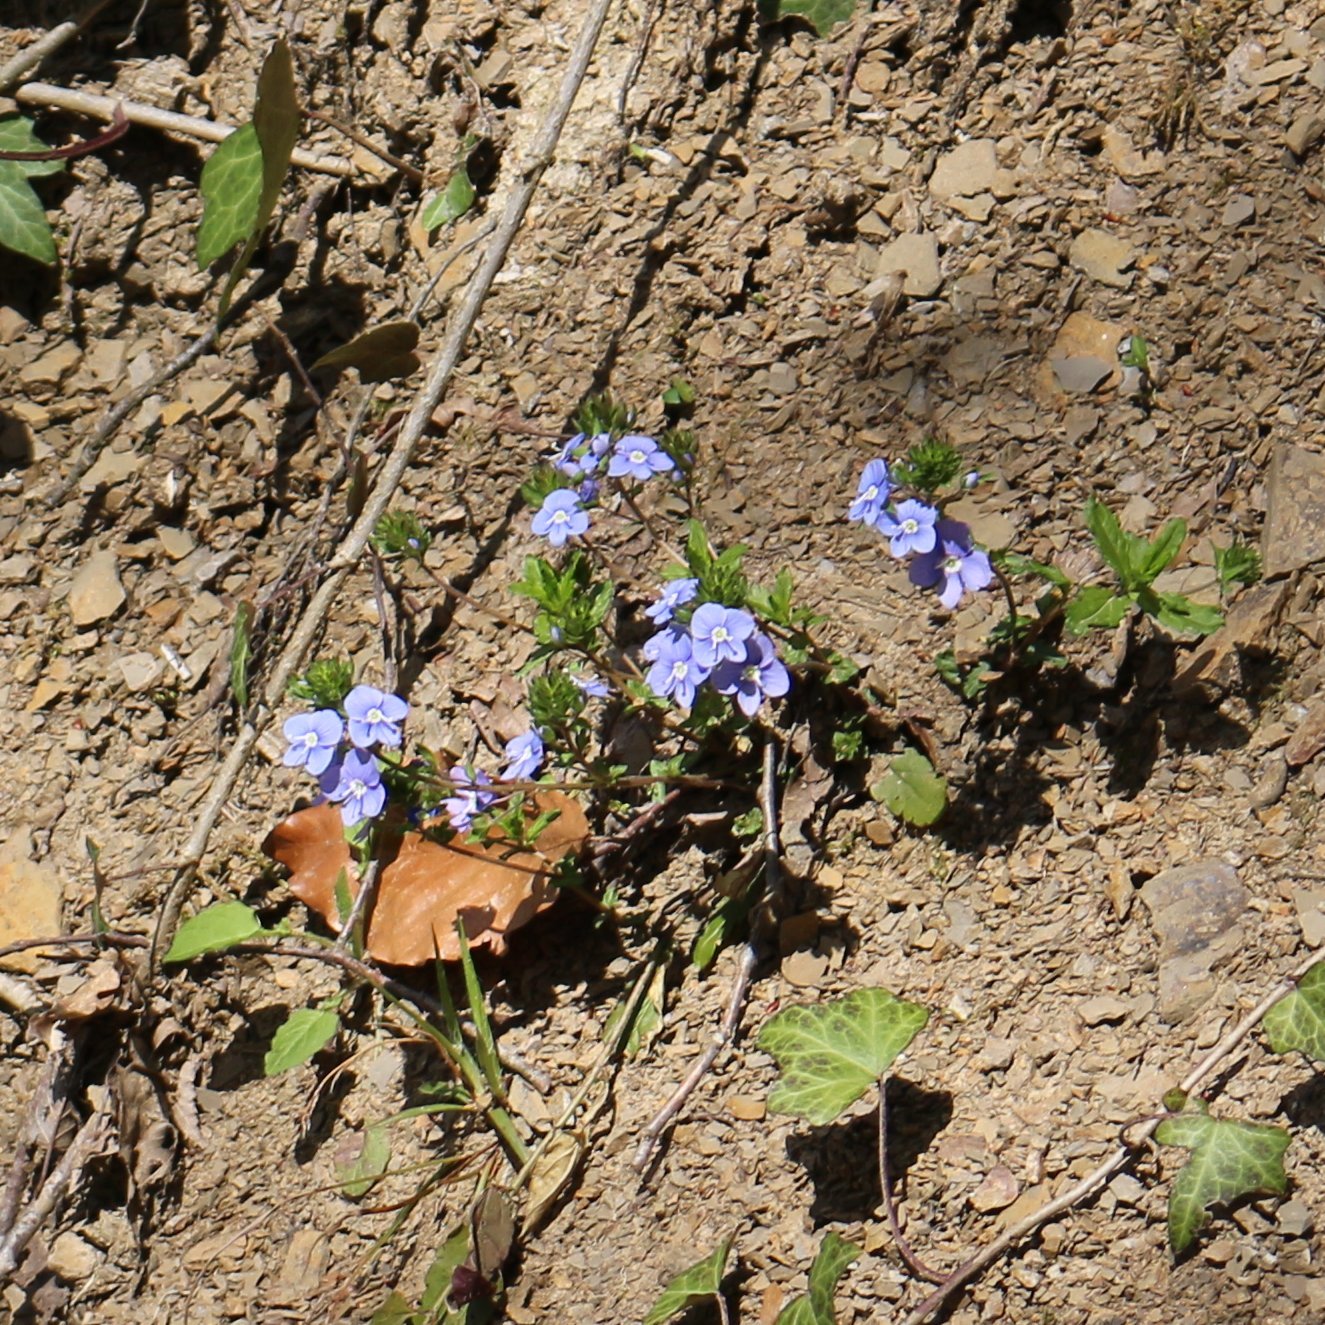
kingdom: Plantae
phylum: Tracheophyta
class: Magnoliopsida
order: Lamiales
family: Plantaginaceae
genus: Veronica
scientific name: Veronica
